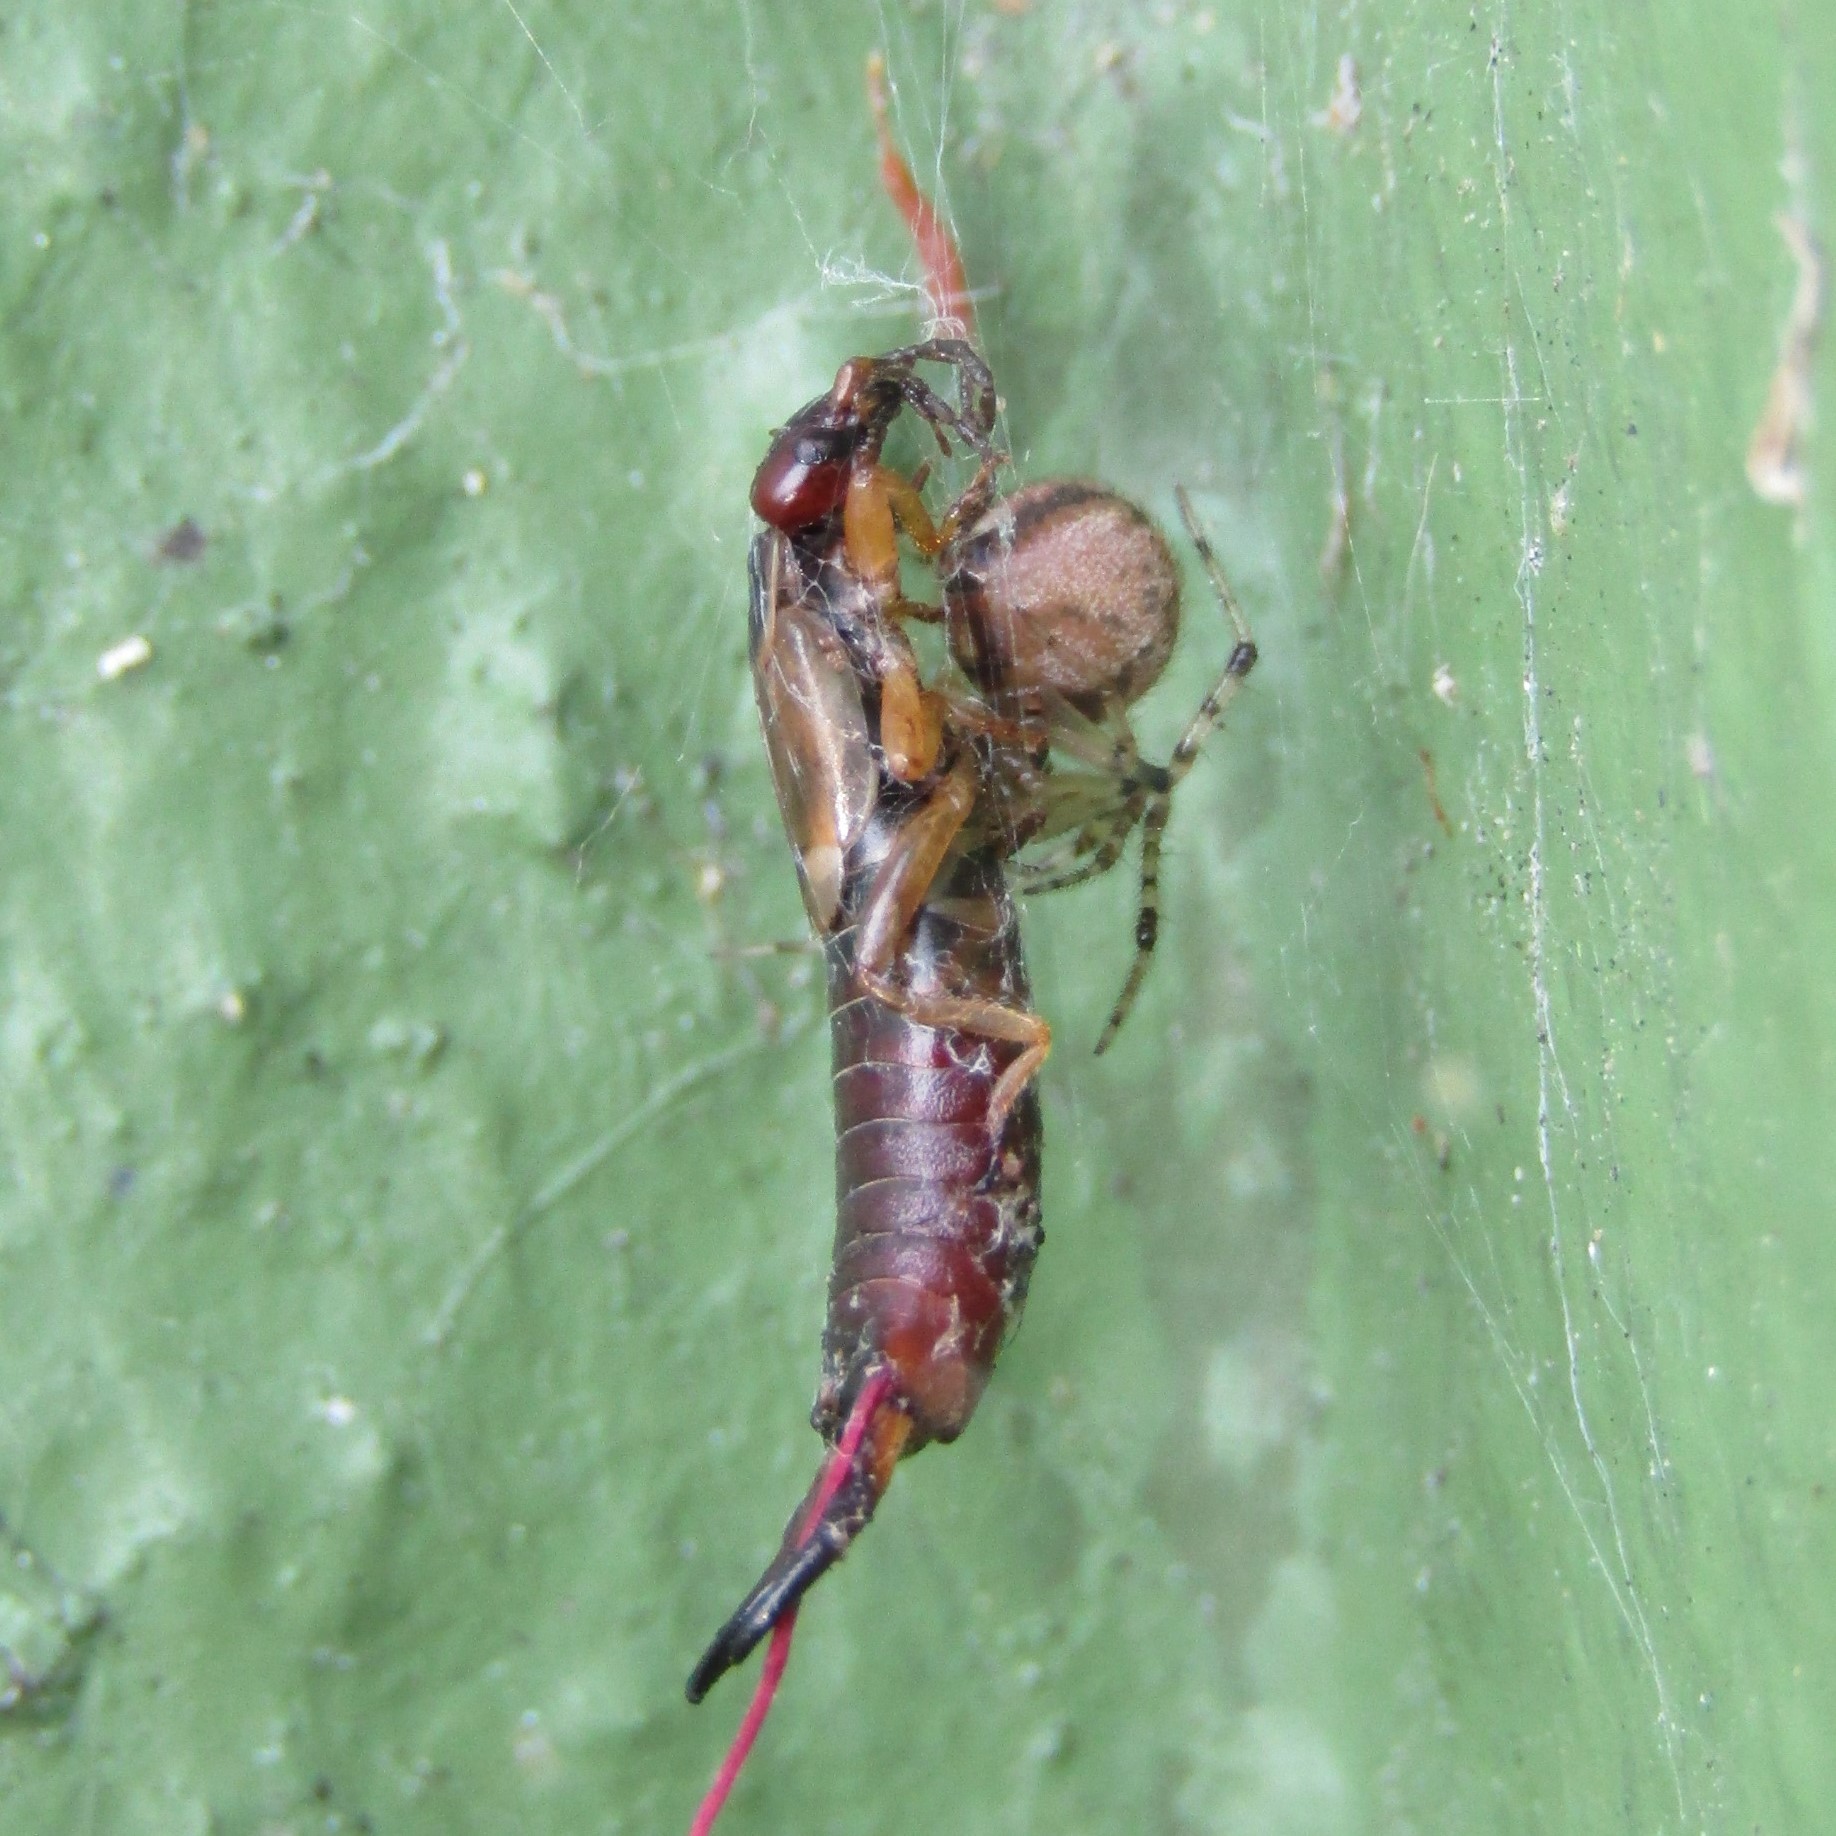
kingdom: Animalia
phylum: Arthropoda
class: Insecta
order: Dermaptera
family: Forficulidae
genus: Forficula
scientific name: Forficula dentata
